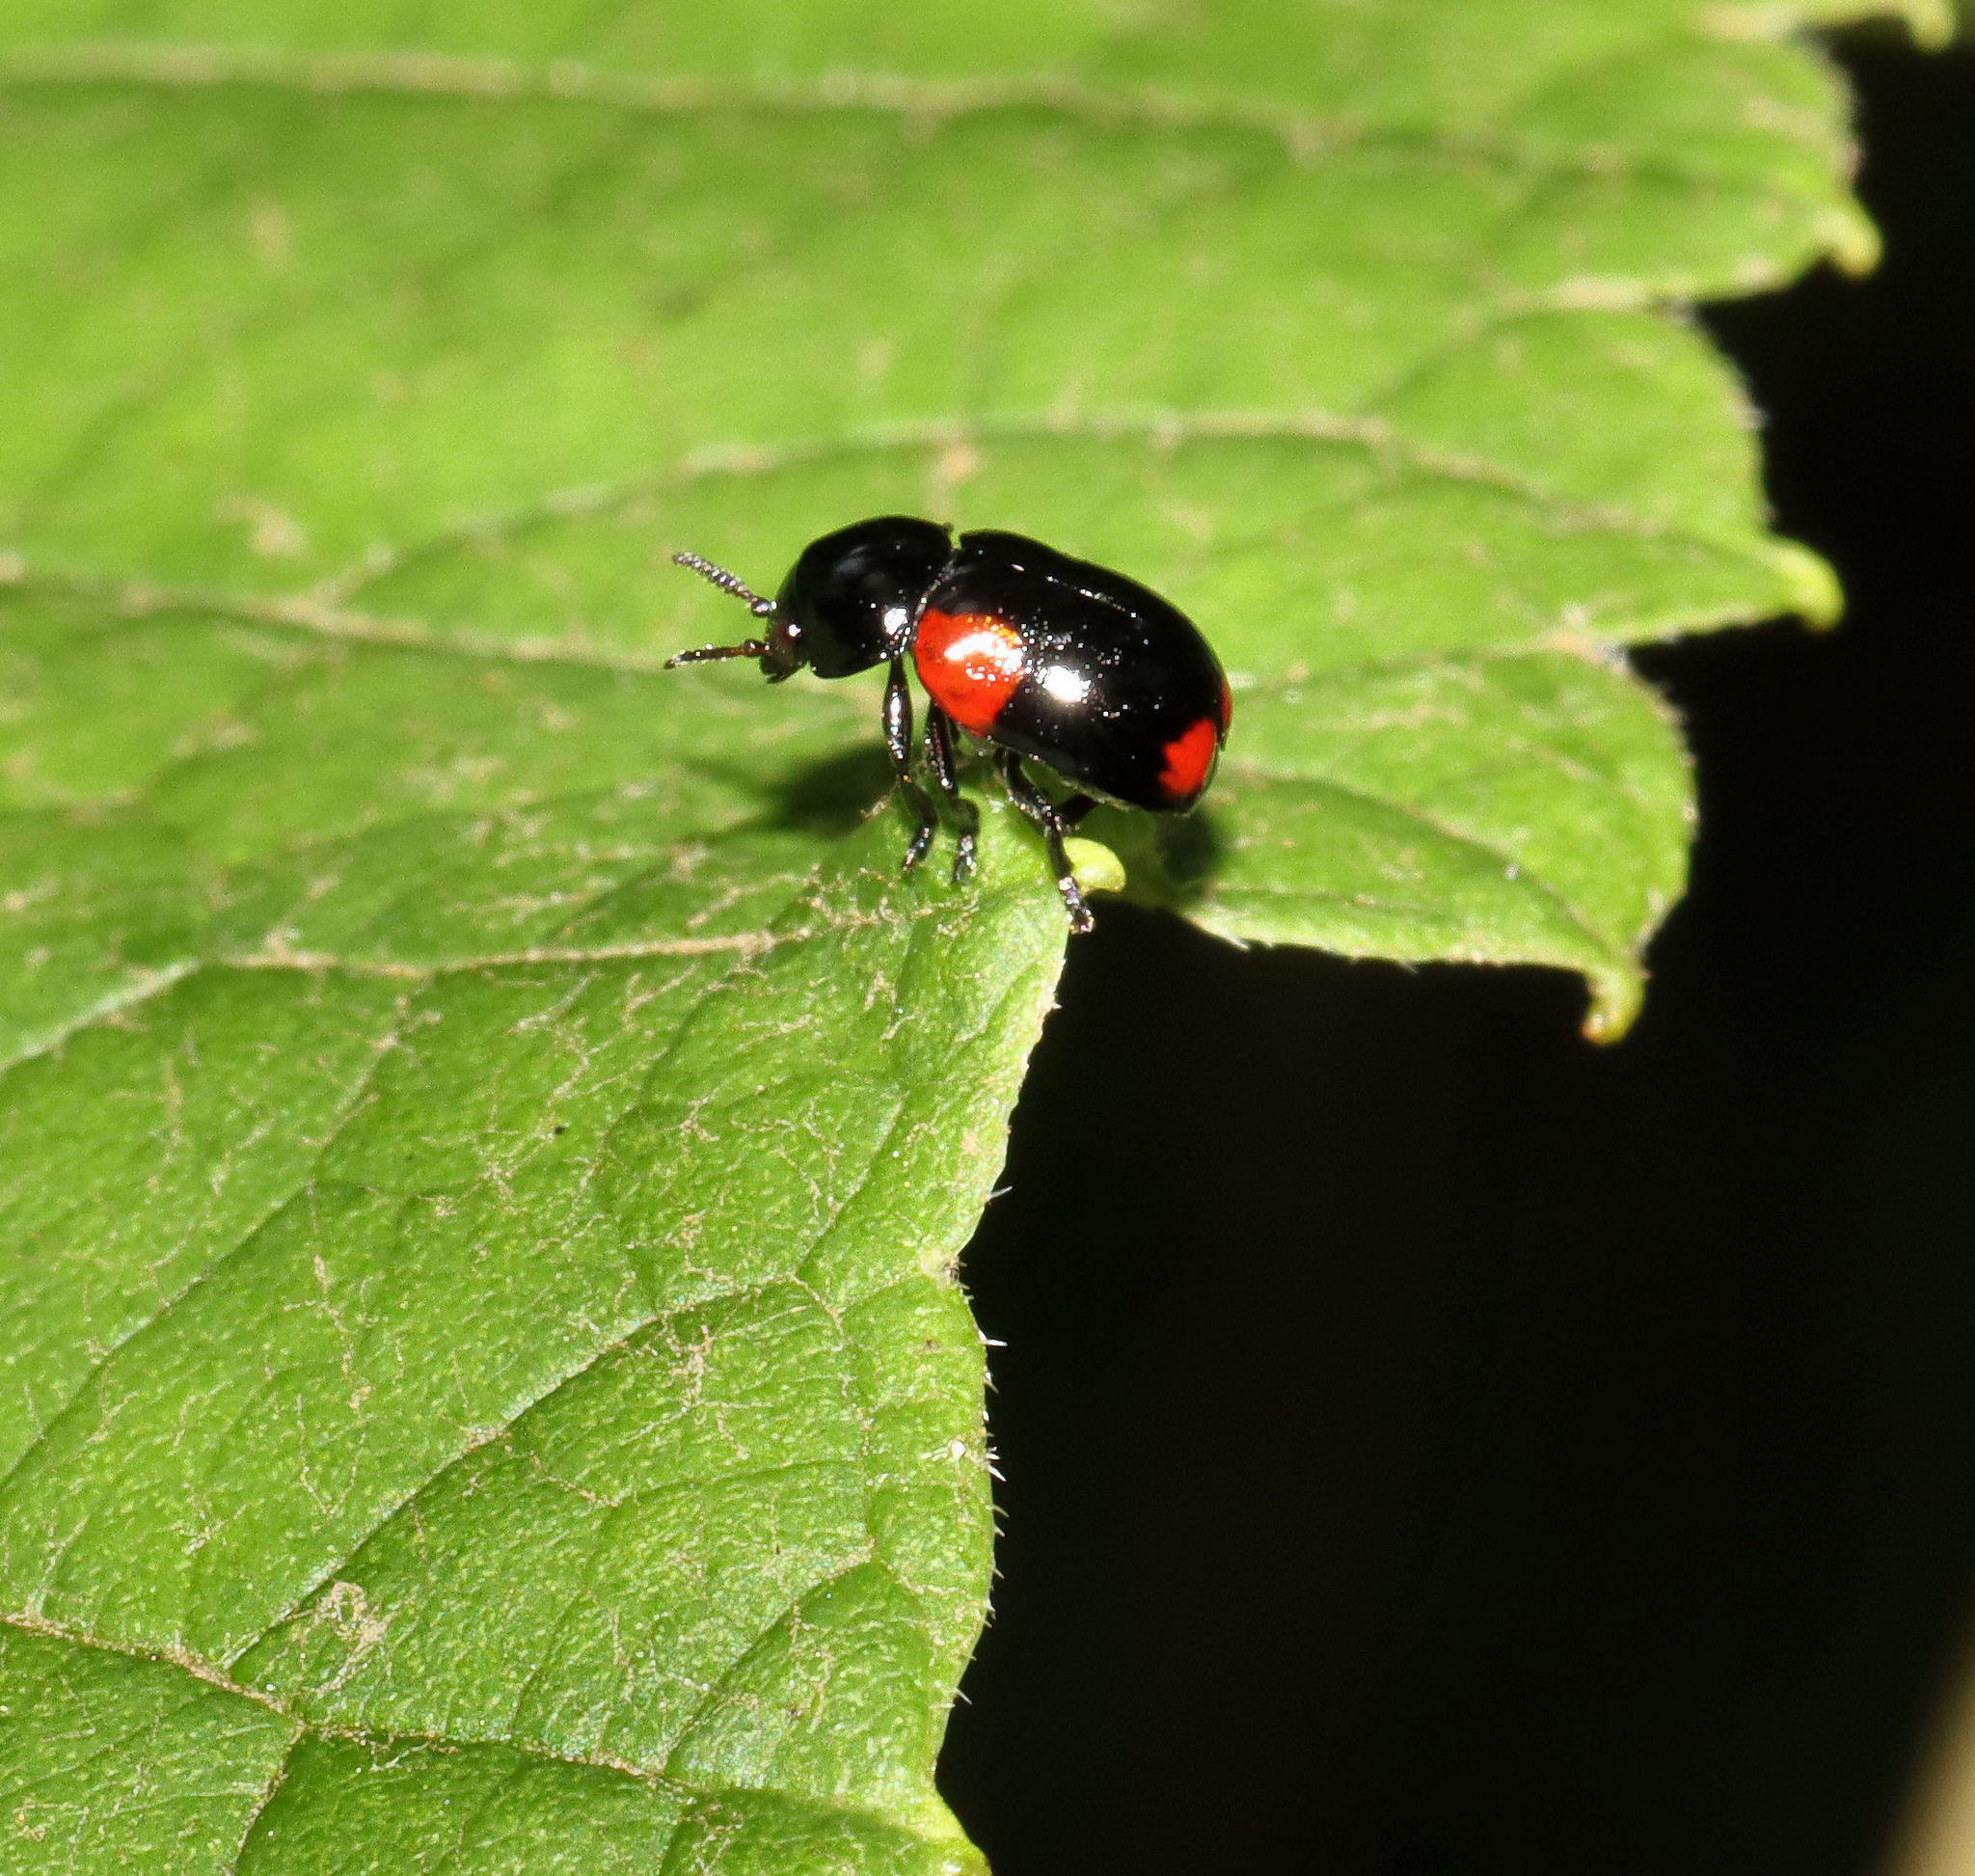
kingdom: Animalia
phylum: Arthropoda
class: Insecta
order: Coleoptera
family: Chrysomelidae
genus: Babia
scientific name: Babia quadriguttata
